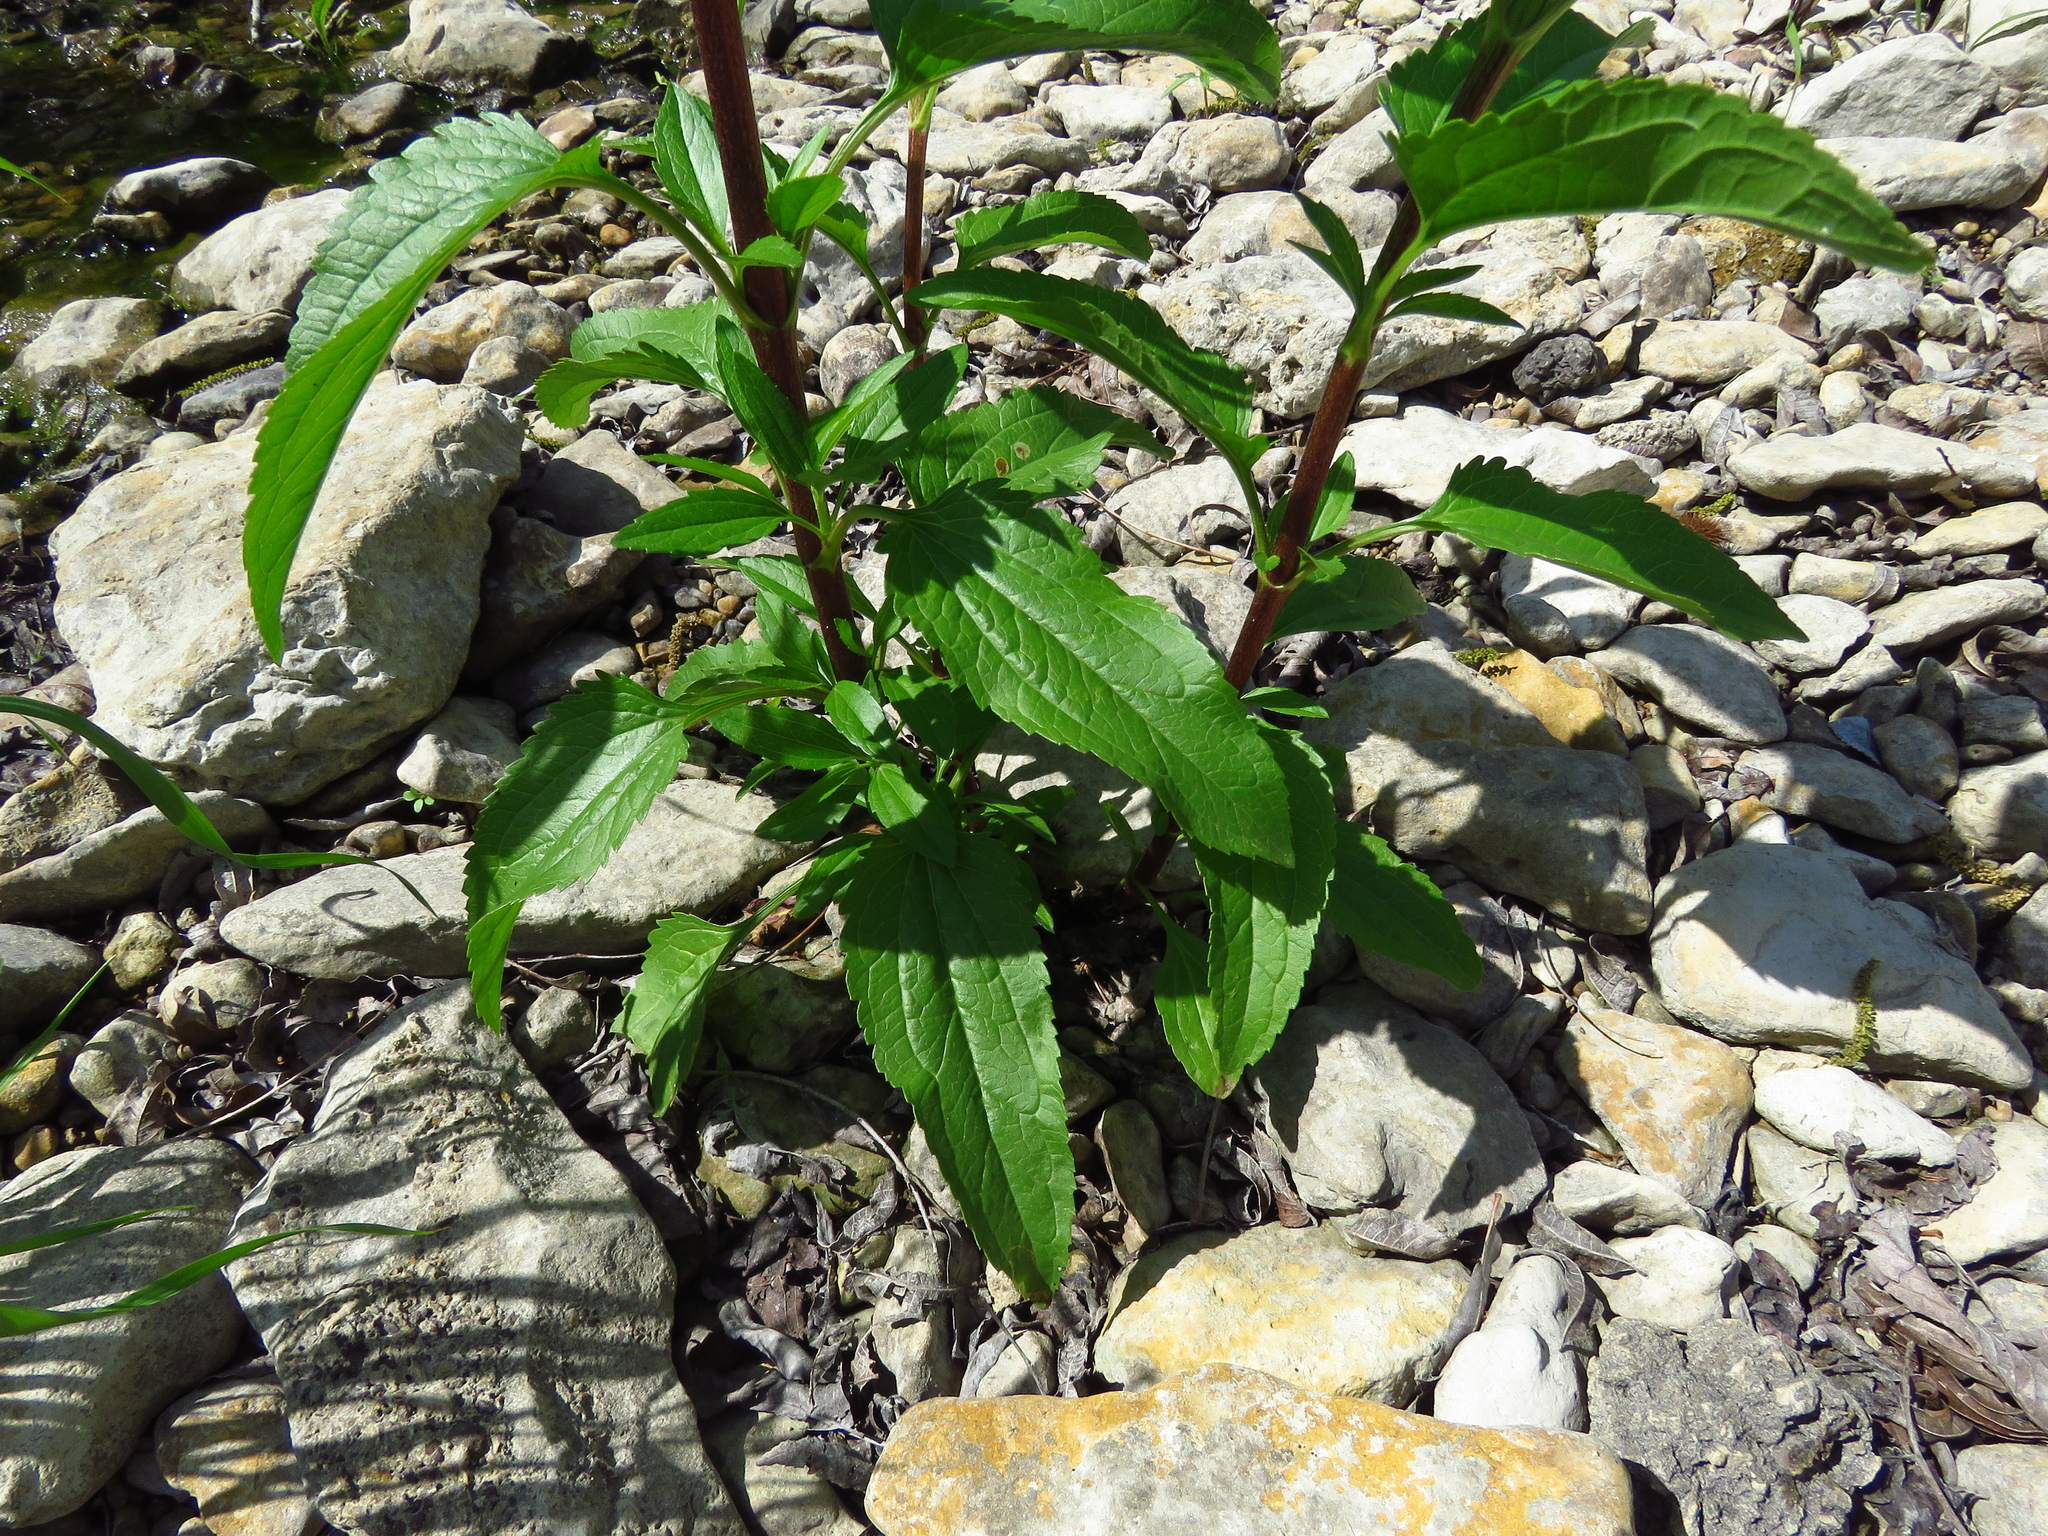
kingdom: Plantae
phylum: Tracheophyta
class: Magnoliopsida
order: Asterales
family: Asteraceae
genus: Eupatorium
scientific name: Eupatorium serotinum
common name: Late boneset
